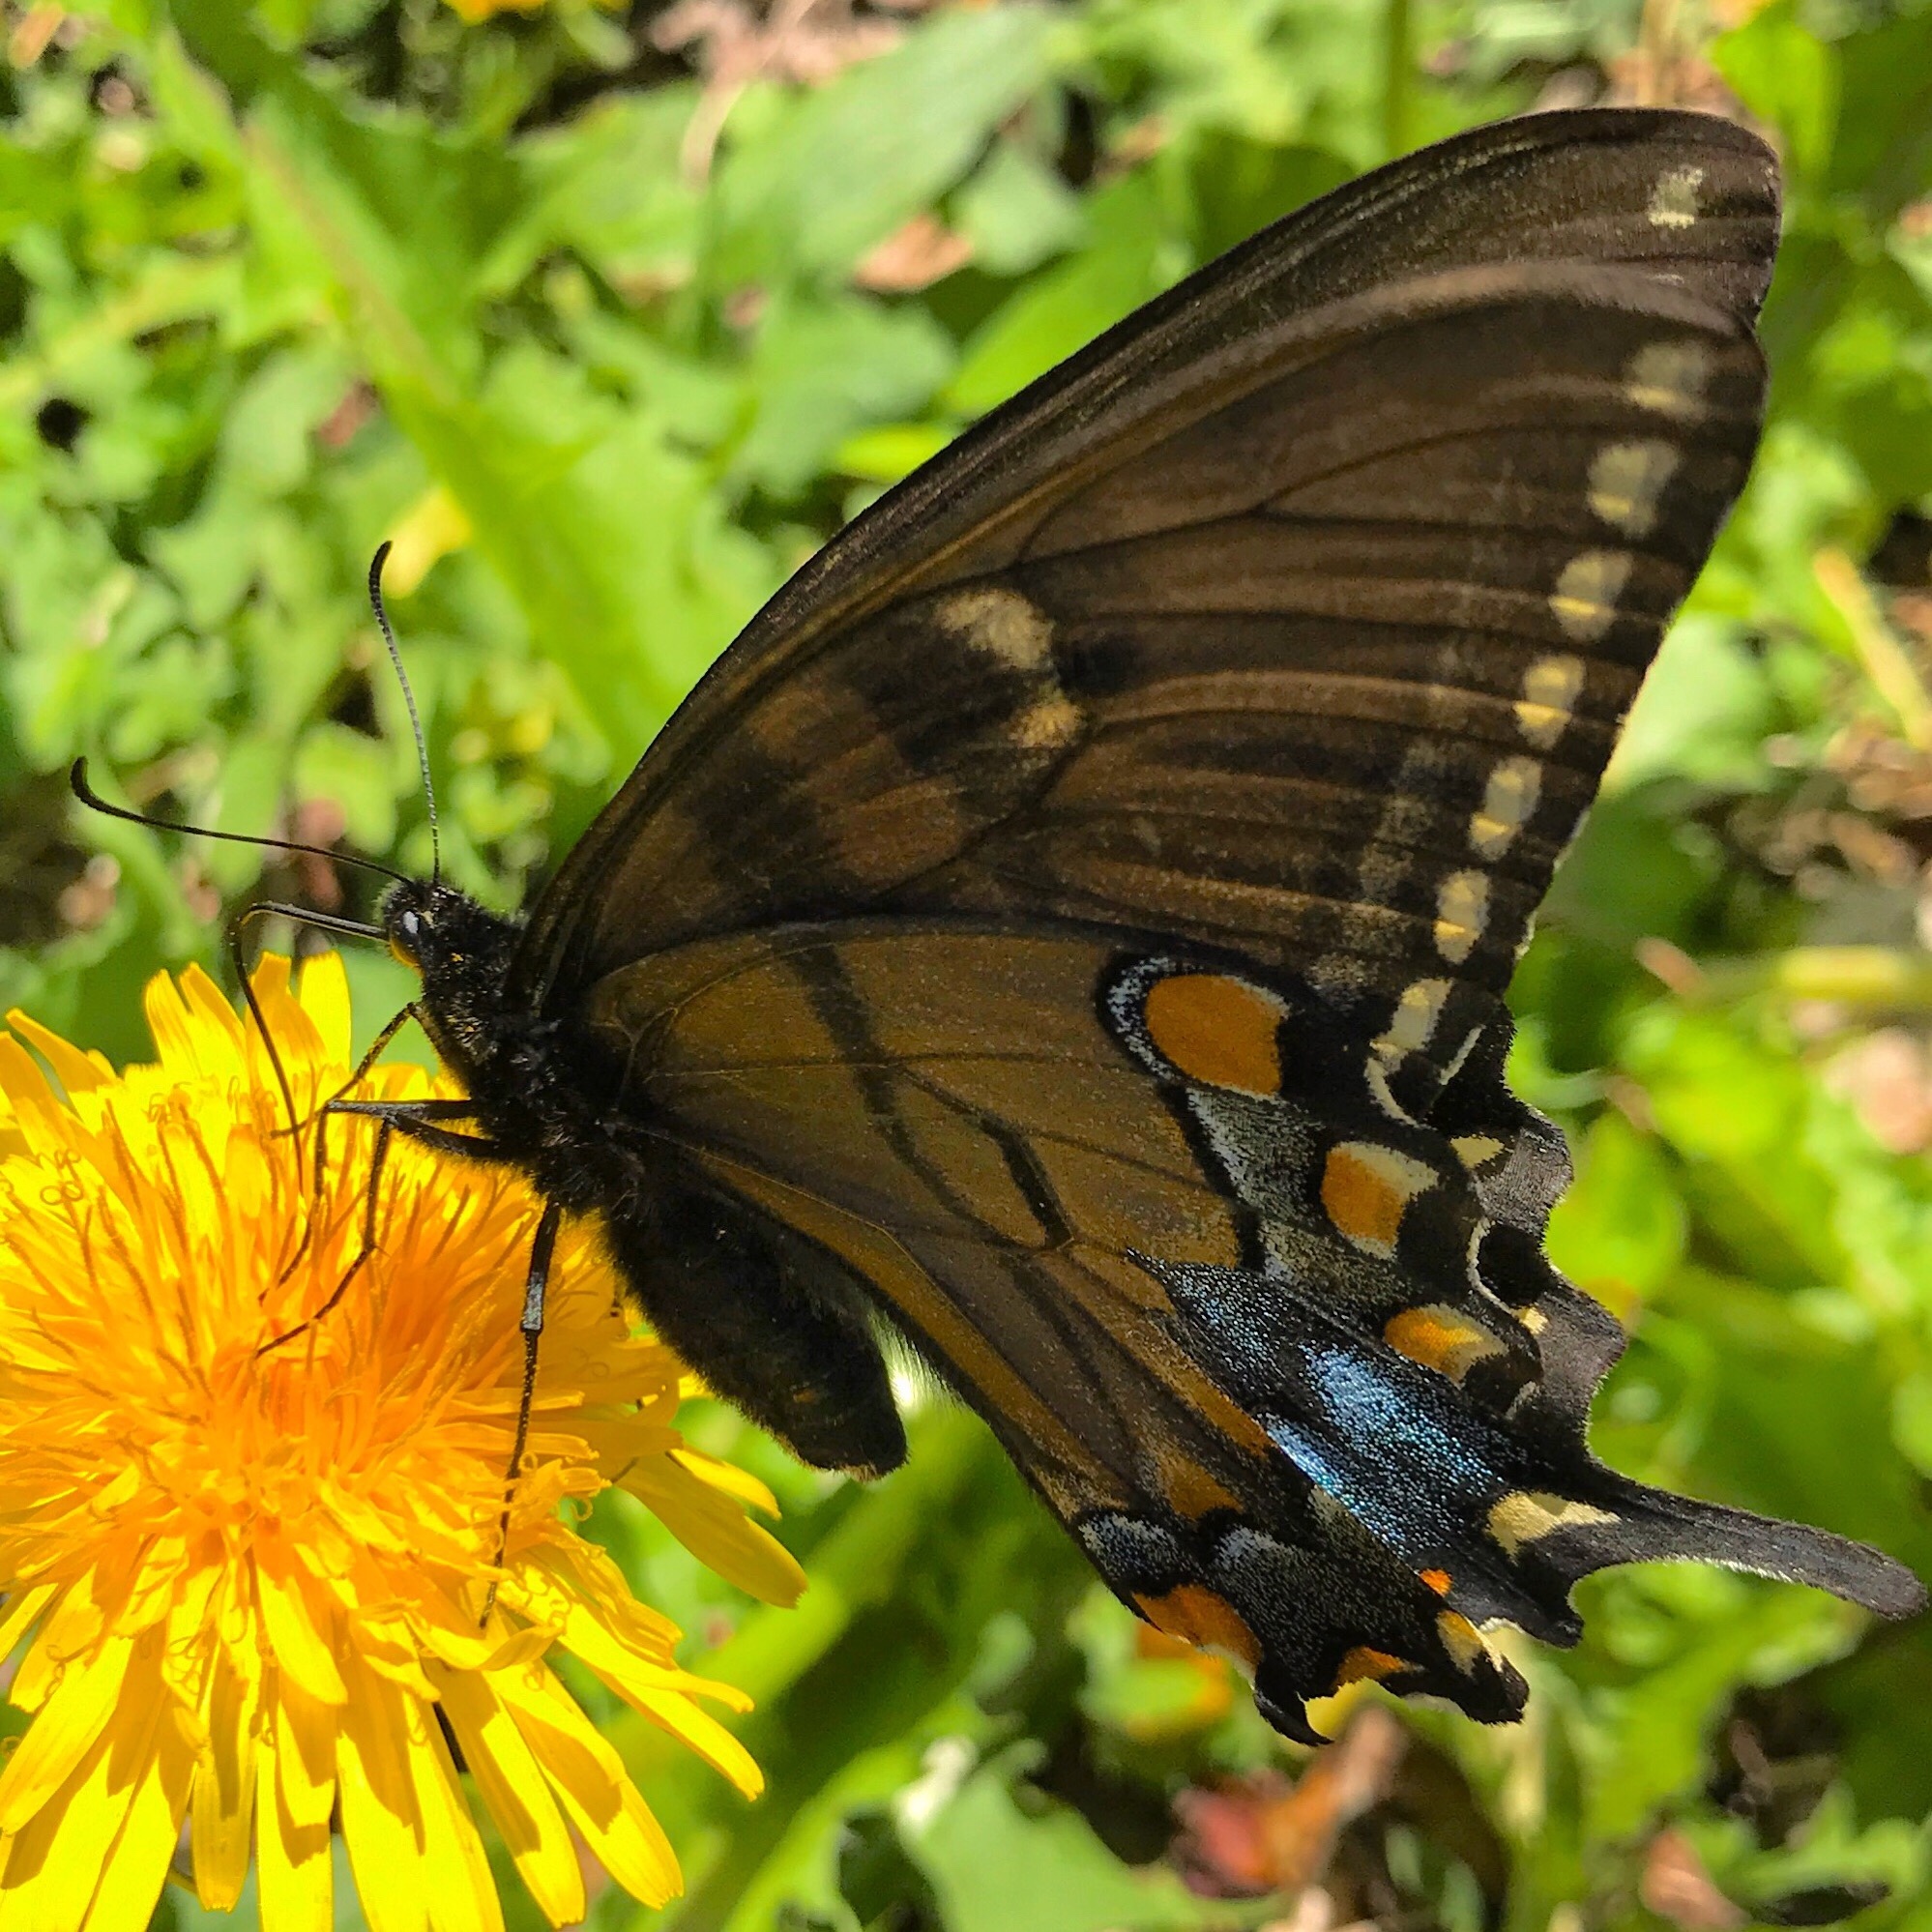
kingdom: Animalia
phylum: Arthropoda
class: Insecta
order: Lepidoptera
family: Papilionidae
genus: Papilio
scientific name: Papilio glaucus
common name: Tiger swallowtail
